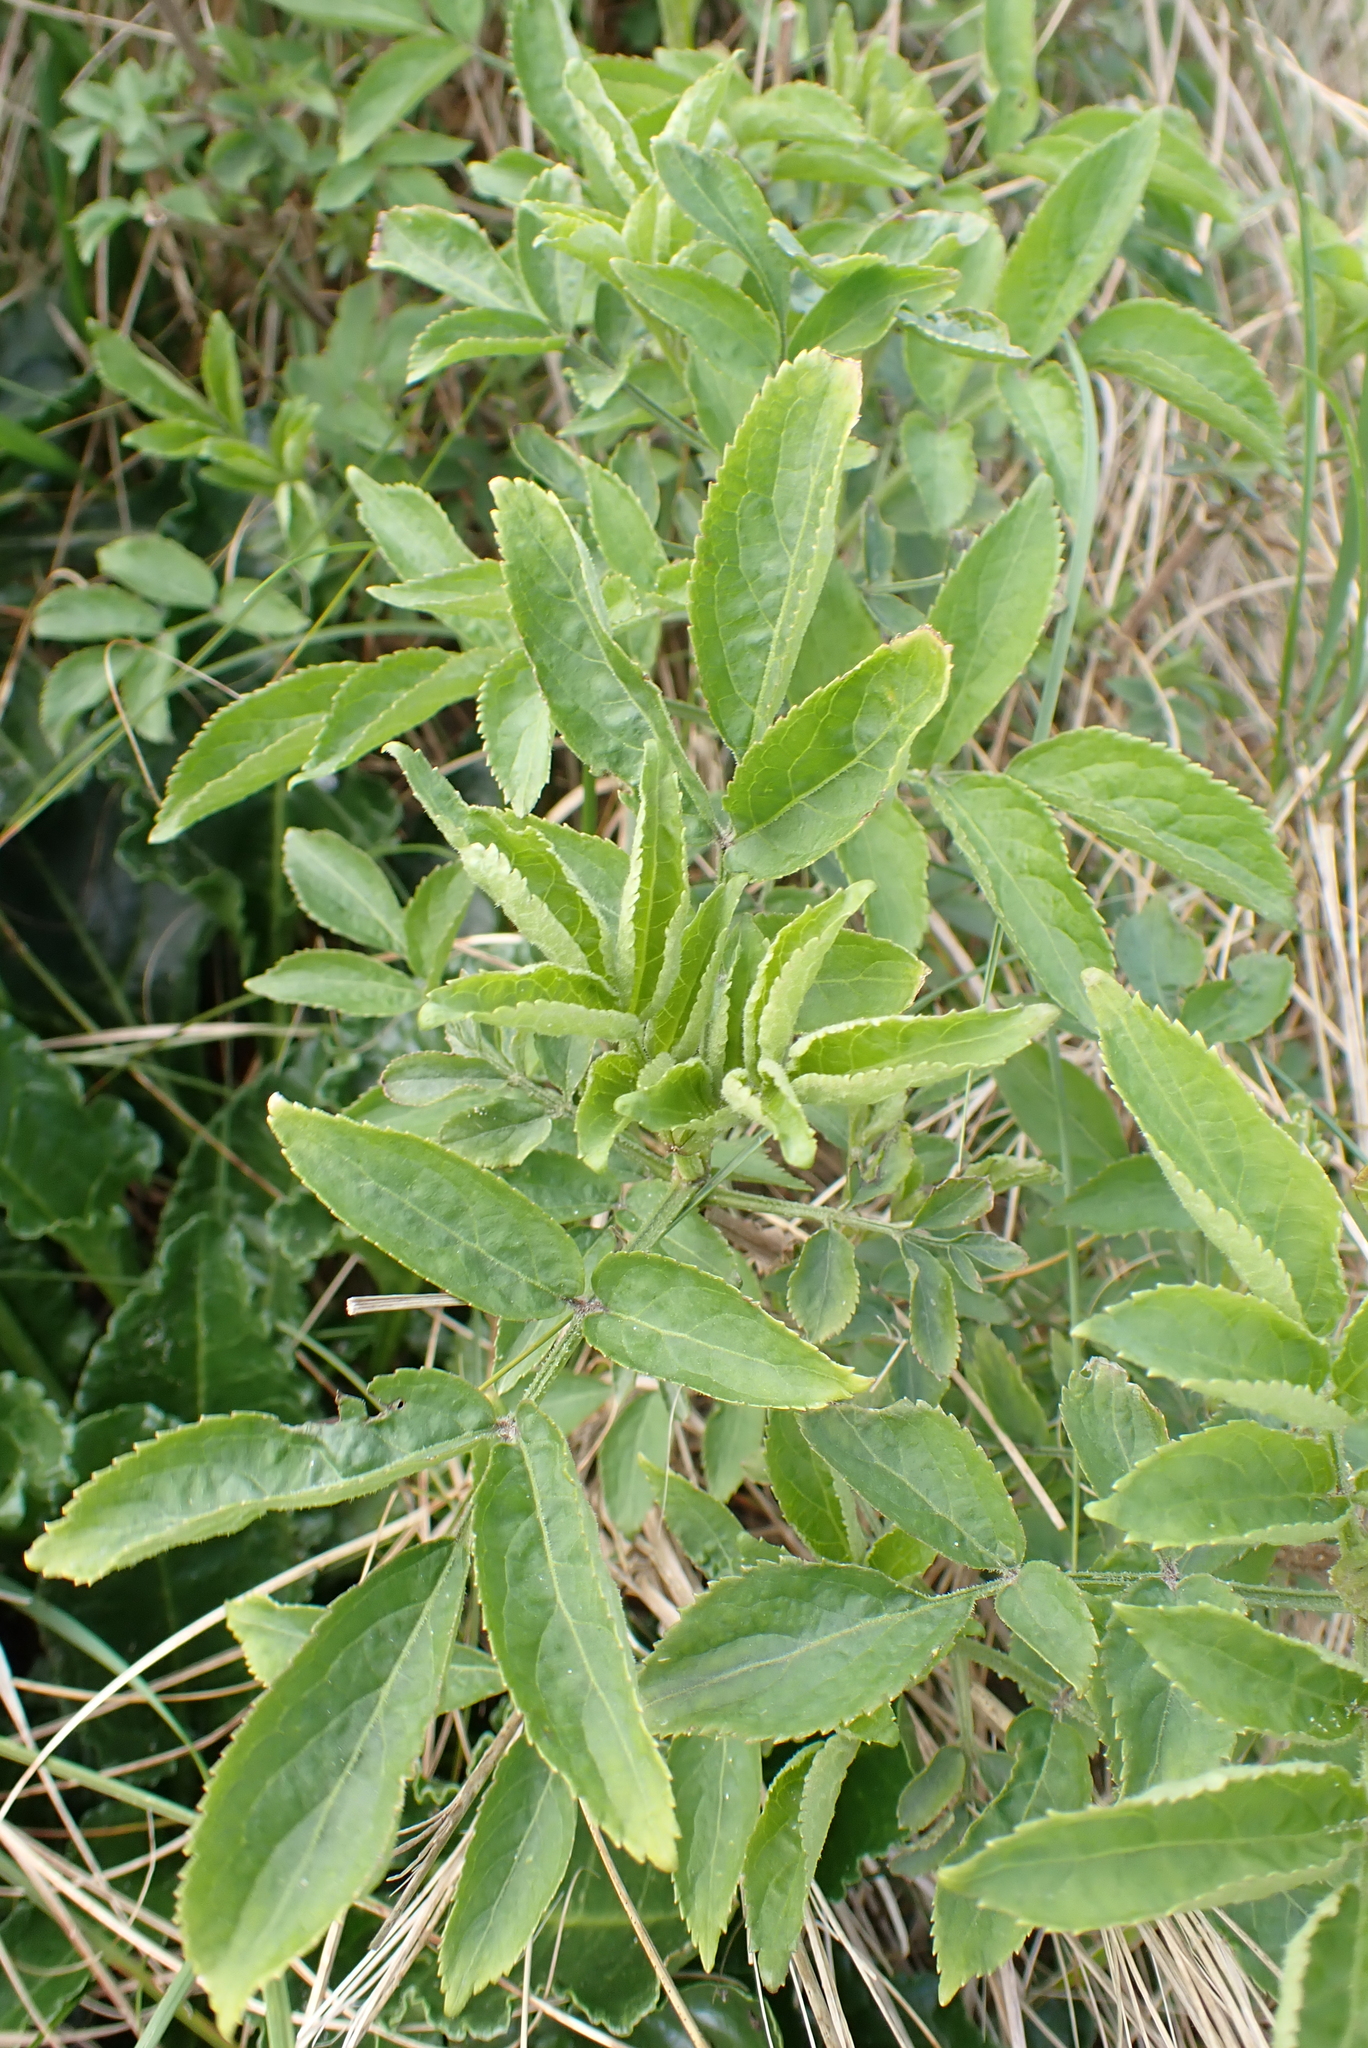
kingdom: Plantae
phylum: Tracheophyta
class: Magnoliopsida
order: Dipsacales
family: Viburnaceae
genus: Sambucus
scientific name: Sambucus nigra
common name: Elder
